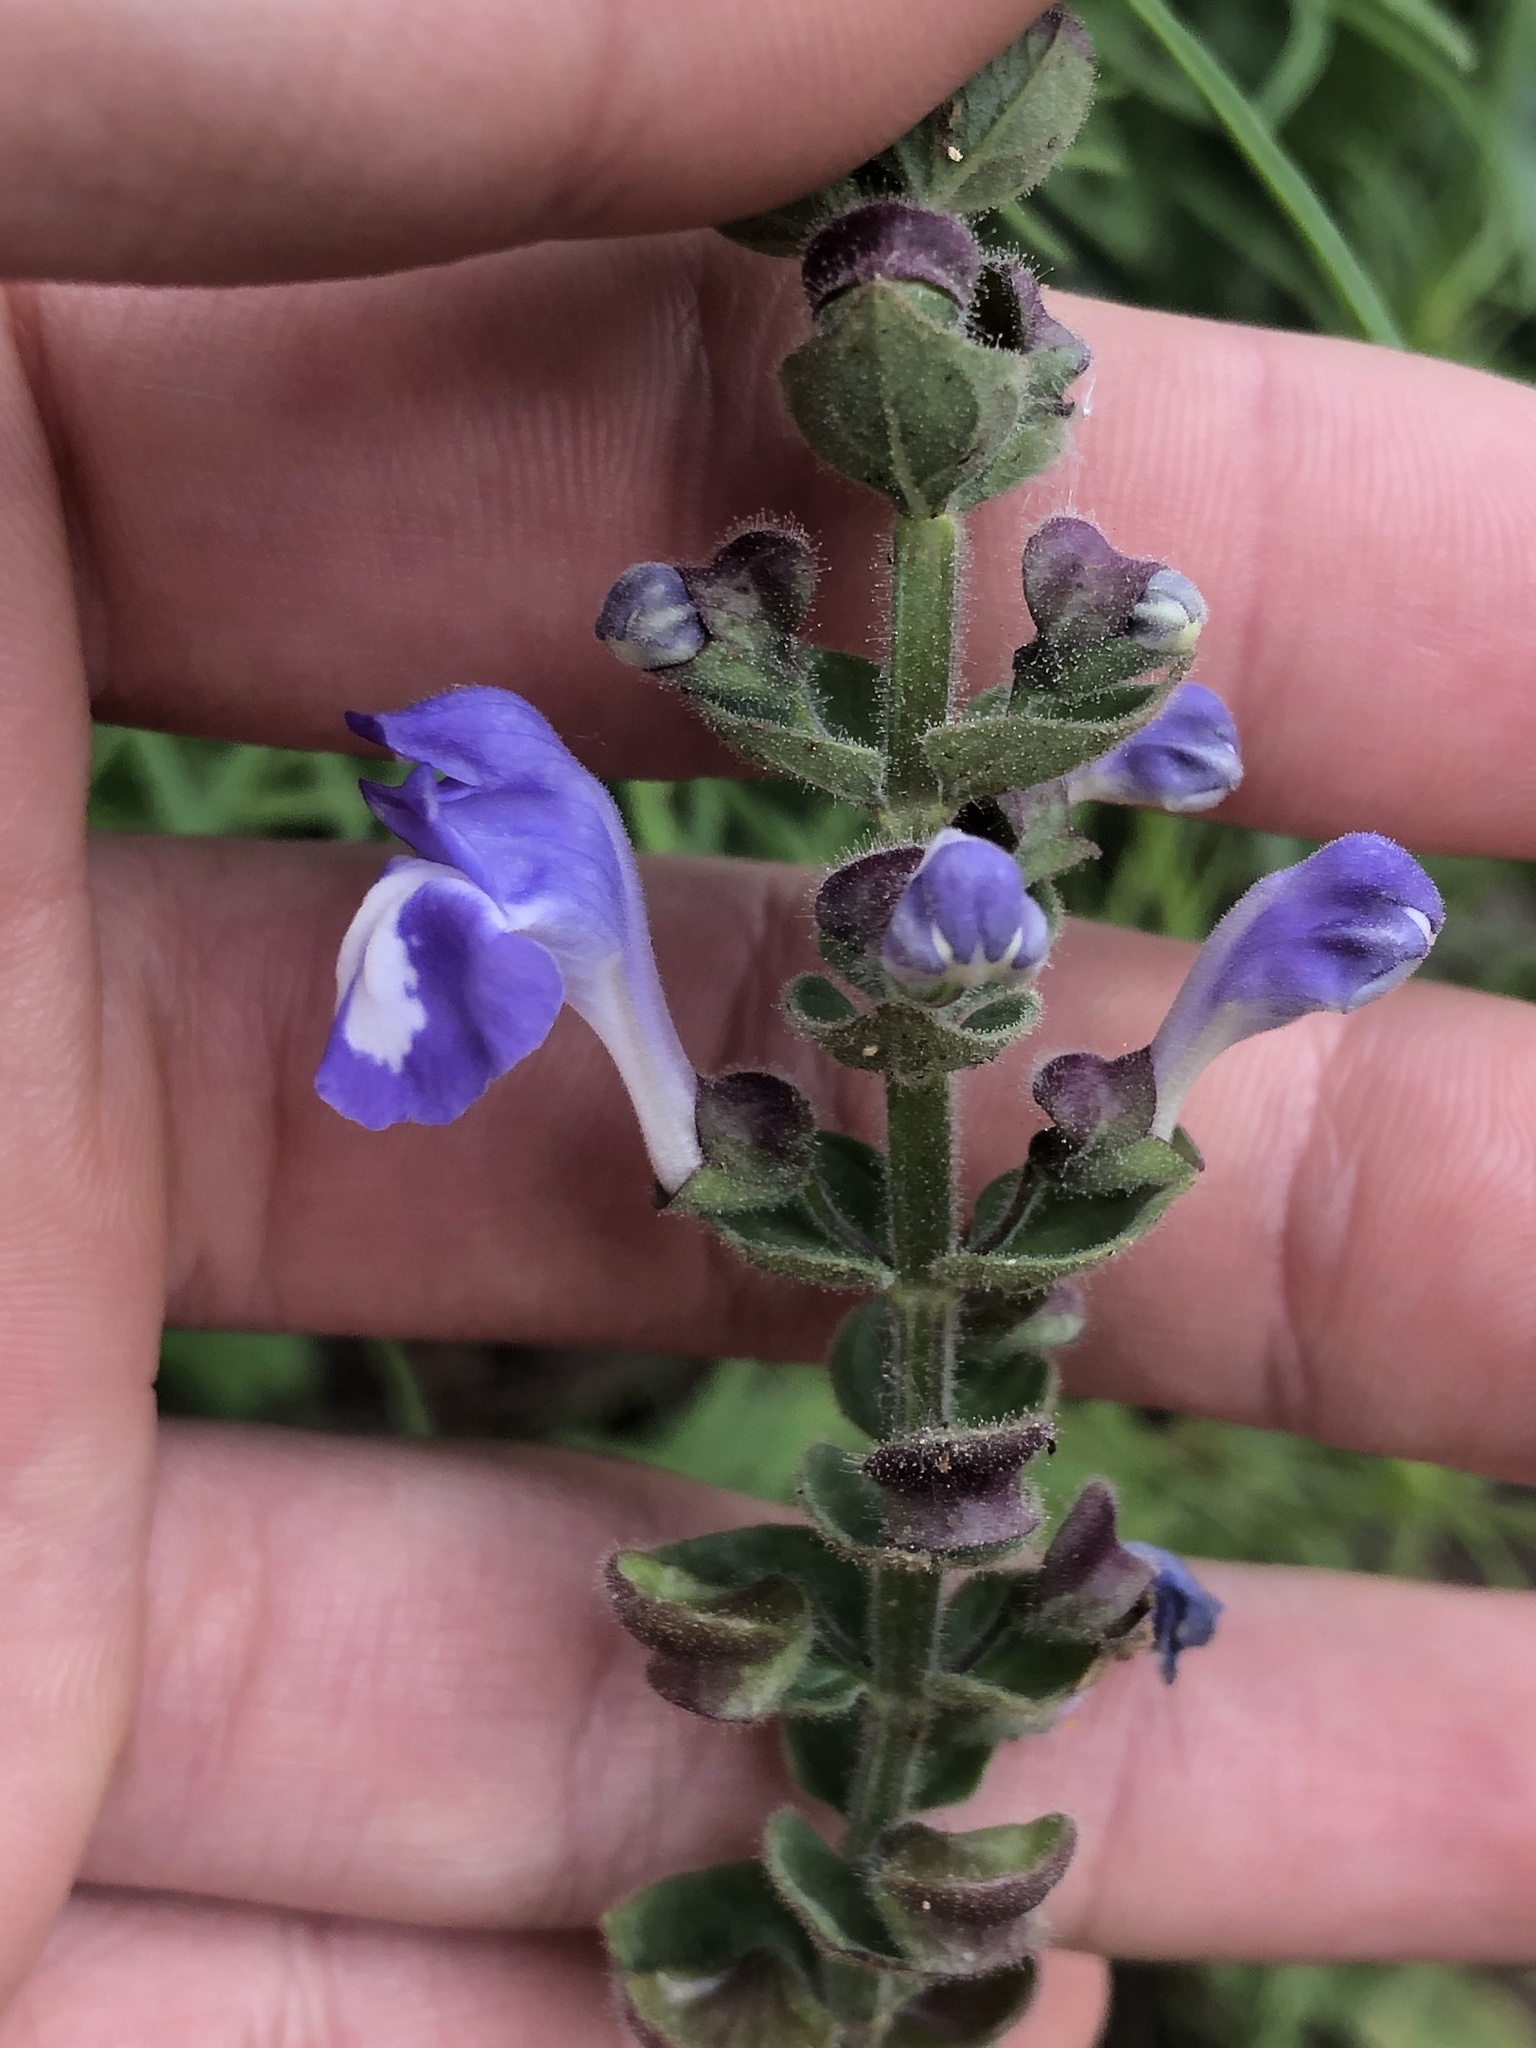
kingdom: Plantae
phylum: Tracheophyta
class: Magnoliopsida
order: Lamiales
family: Lamiaceae
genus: Scutellaria
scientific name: Scutellaria ovata
